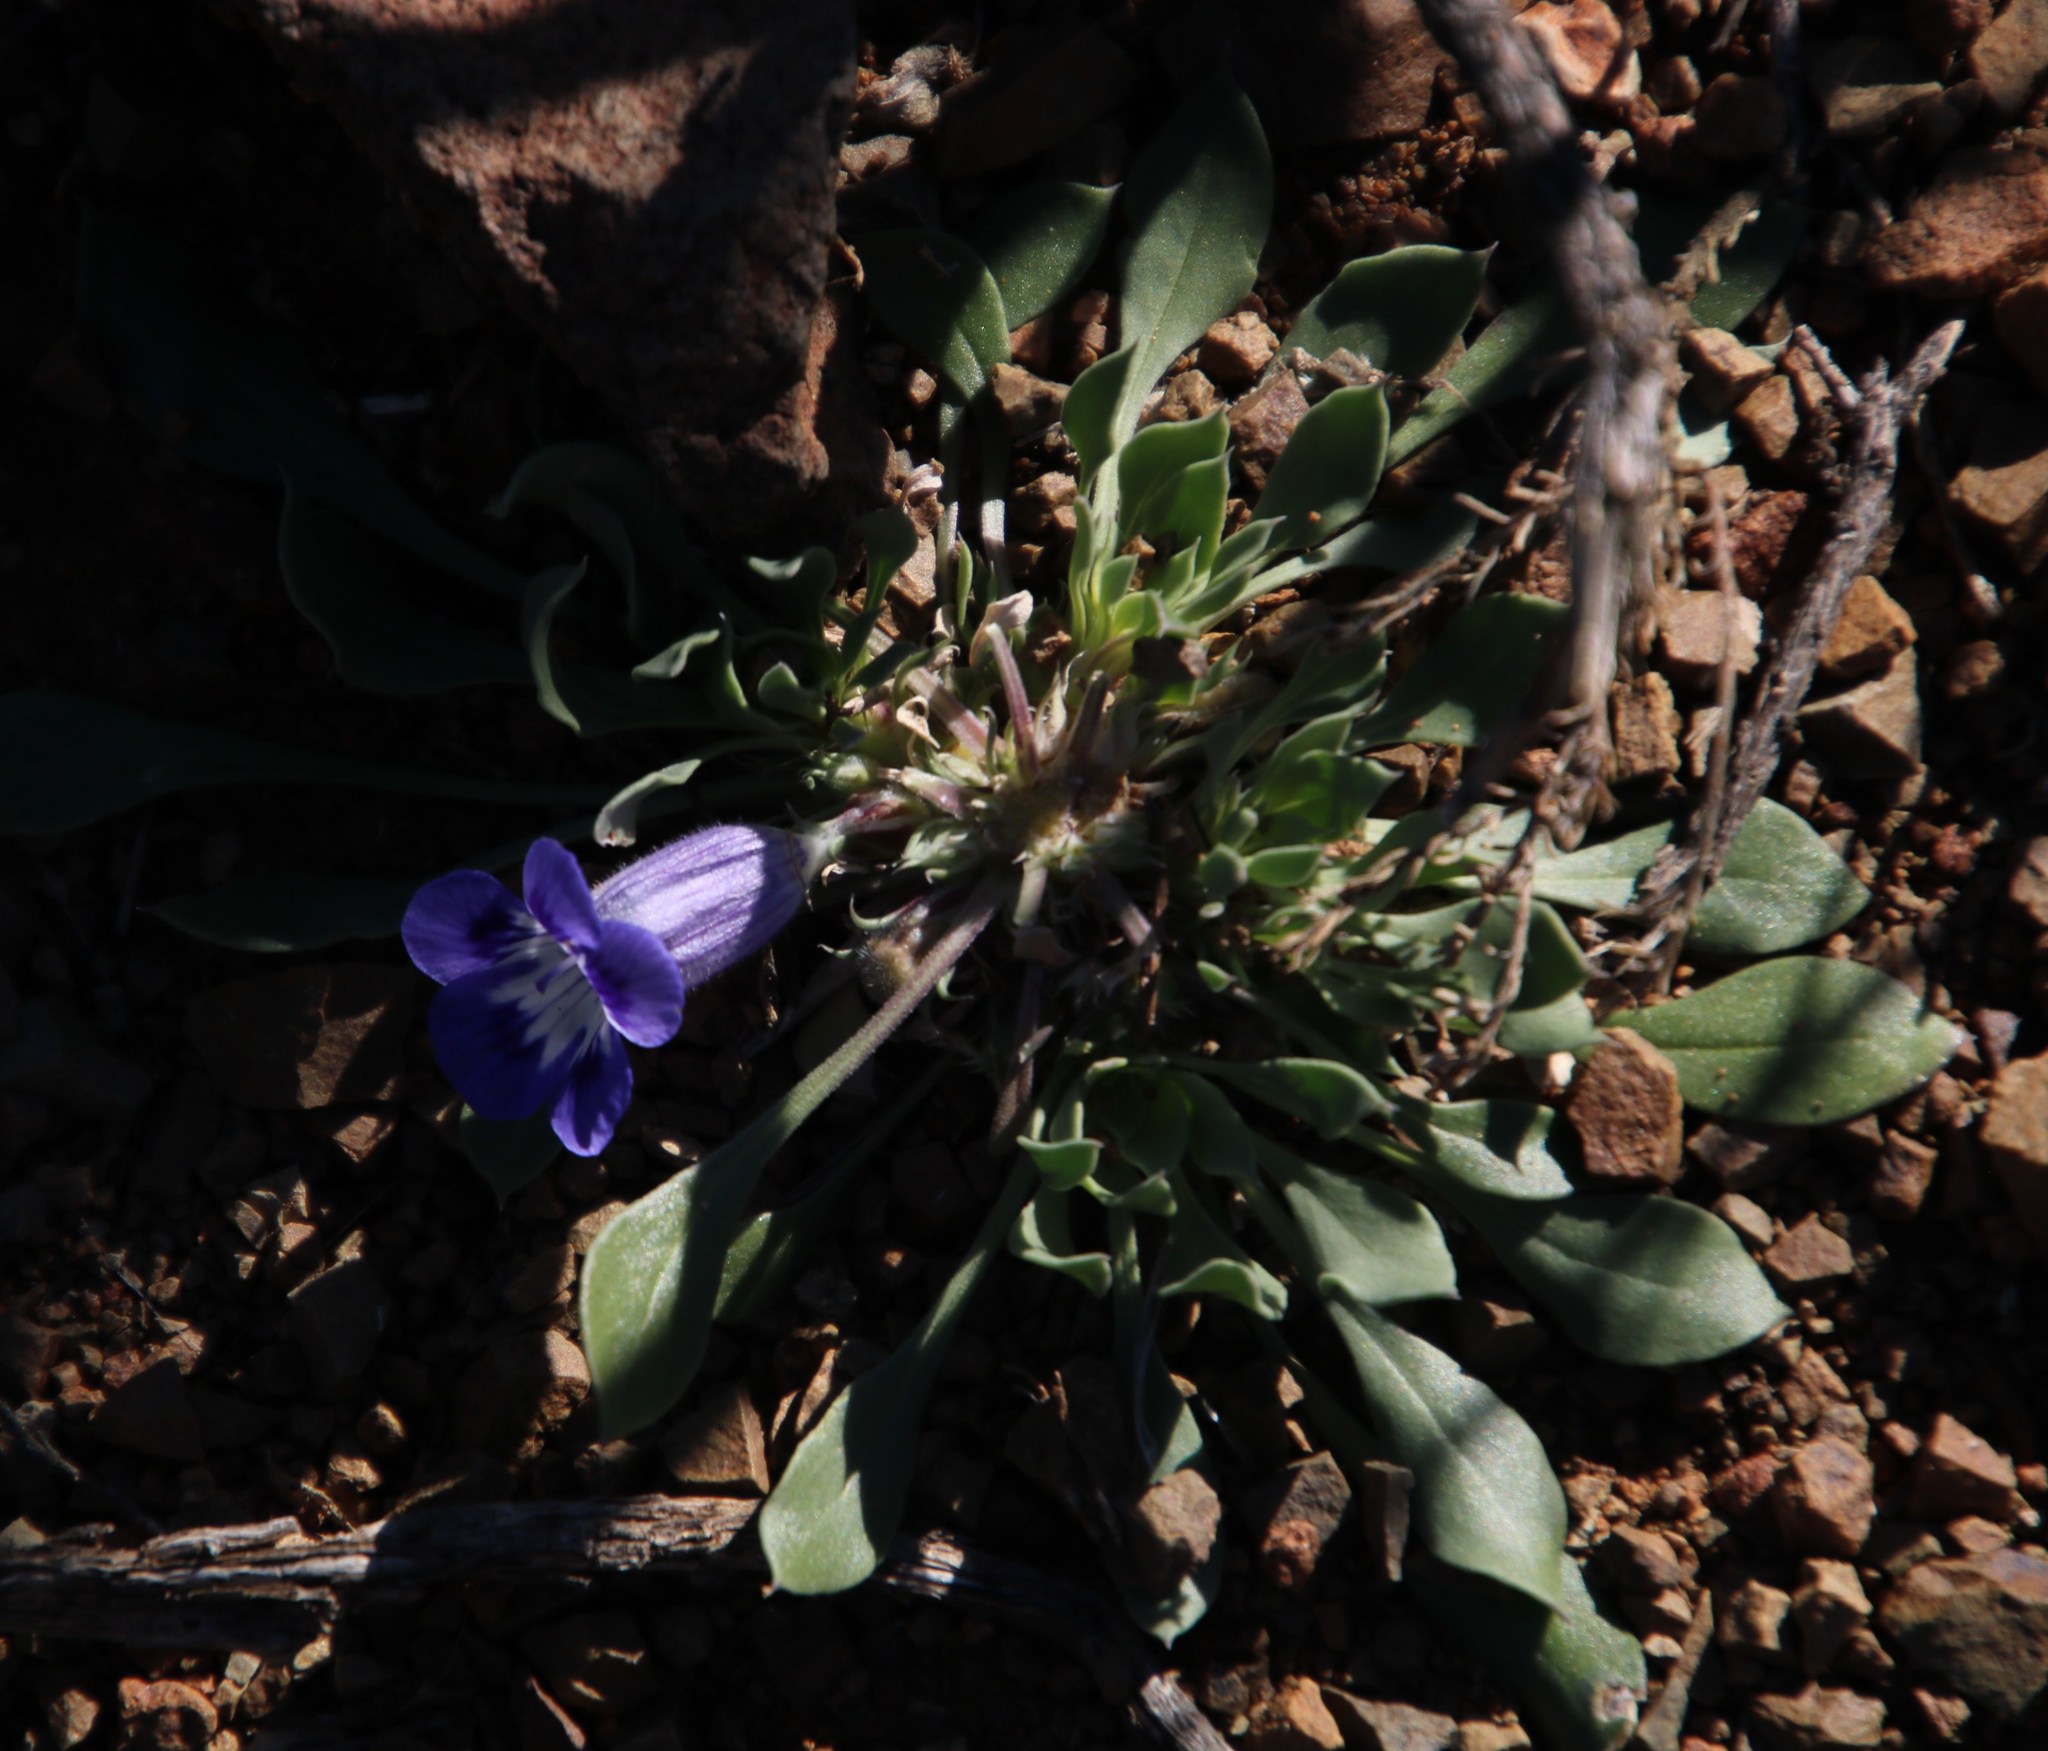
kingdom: Plantae
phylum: Tracheophyta
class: Magnoliopsida
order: Lamiales
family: Scrophulariaceae
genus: Aptosimum
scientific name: Aptosimum indivisum
